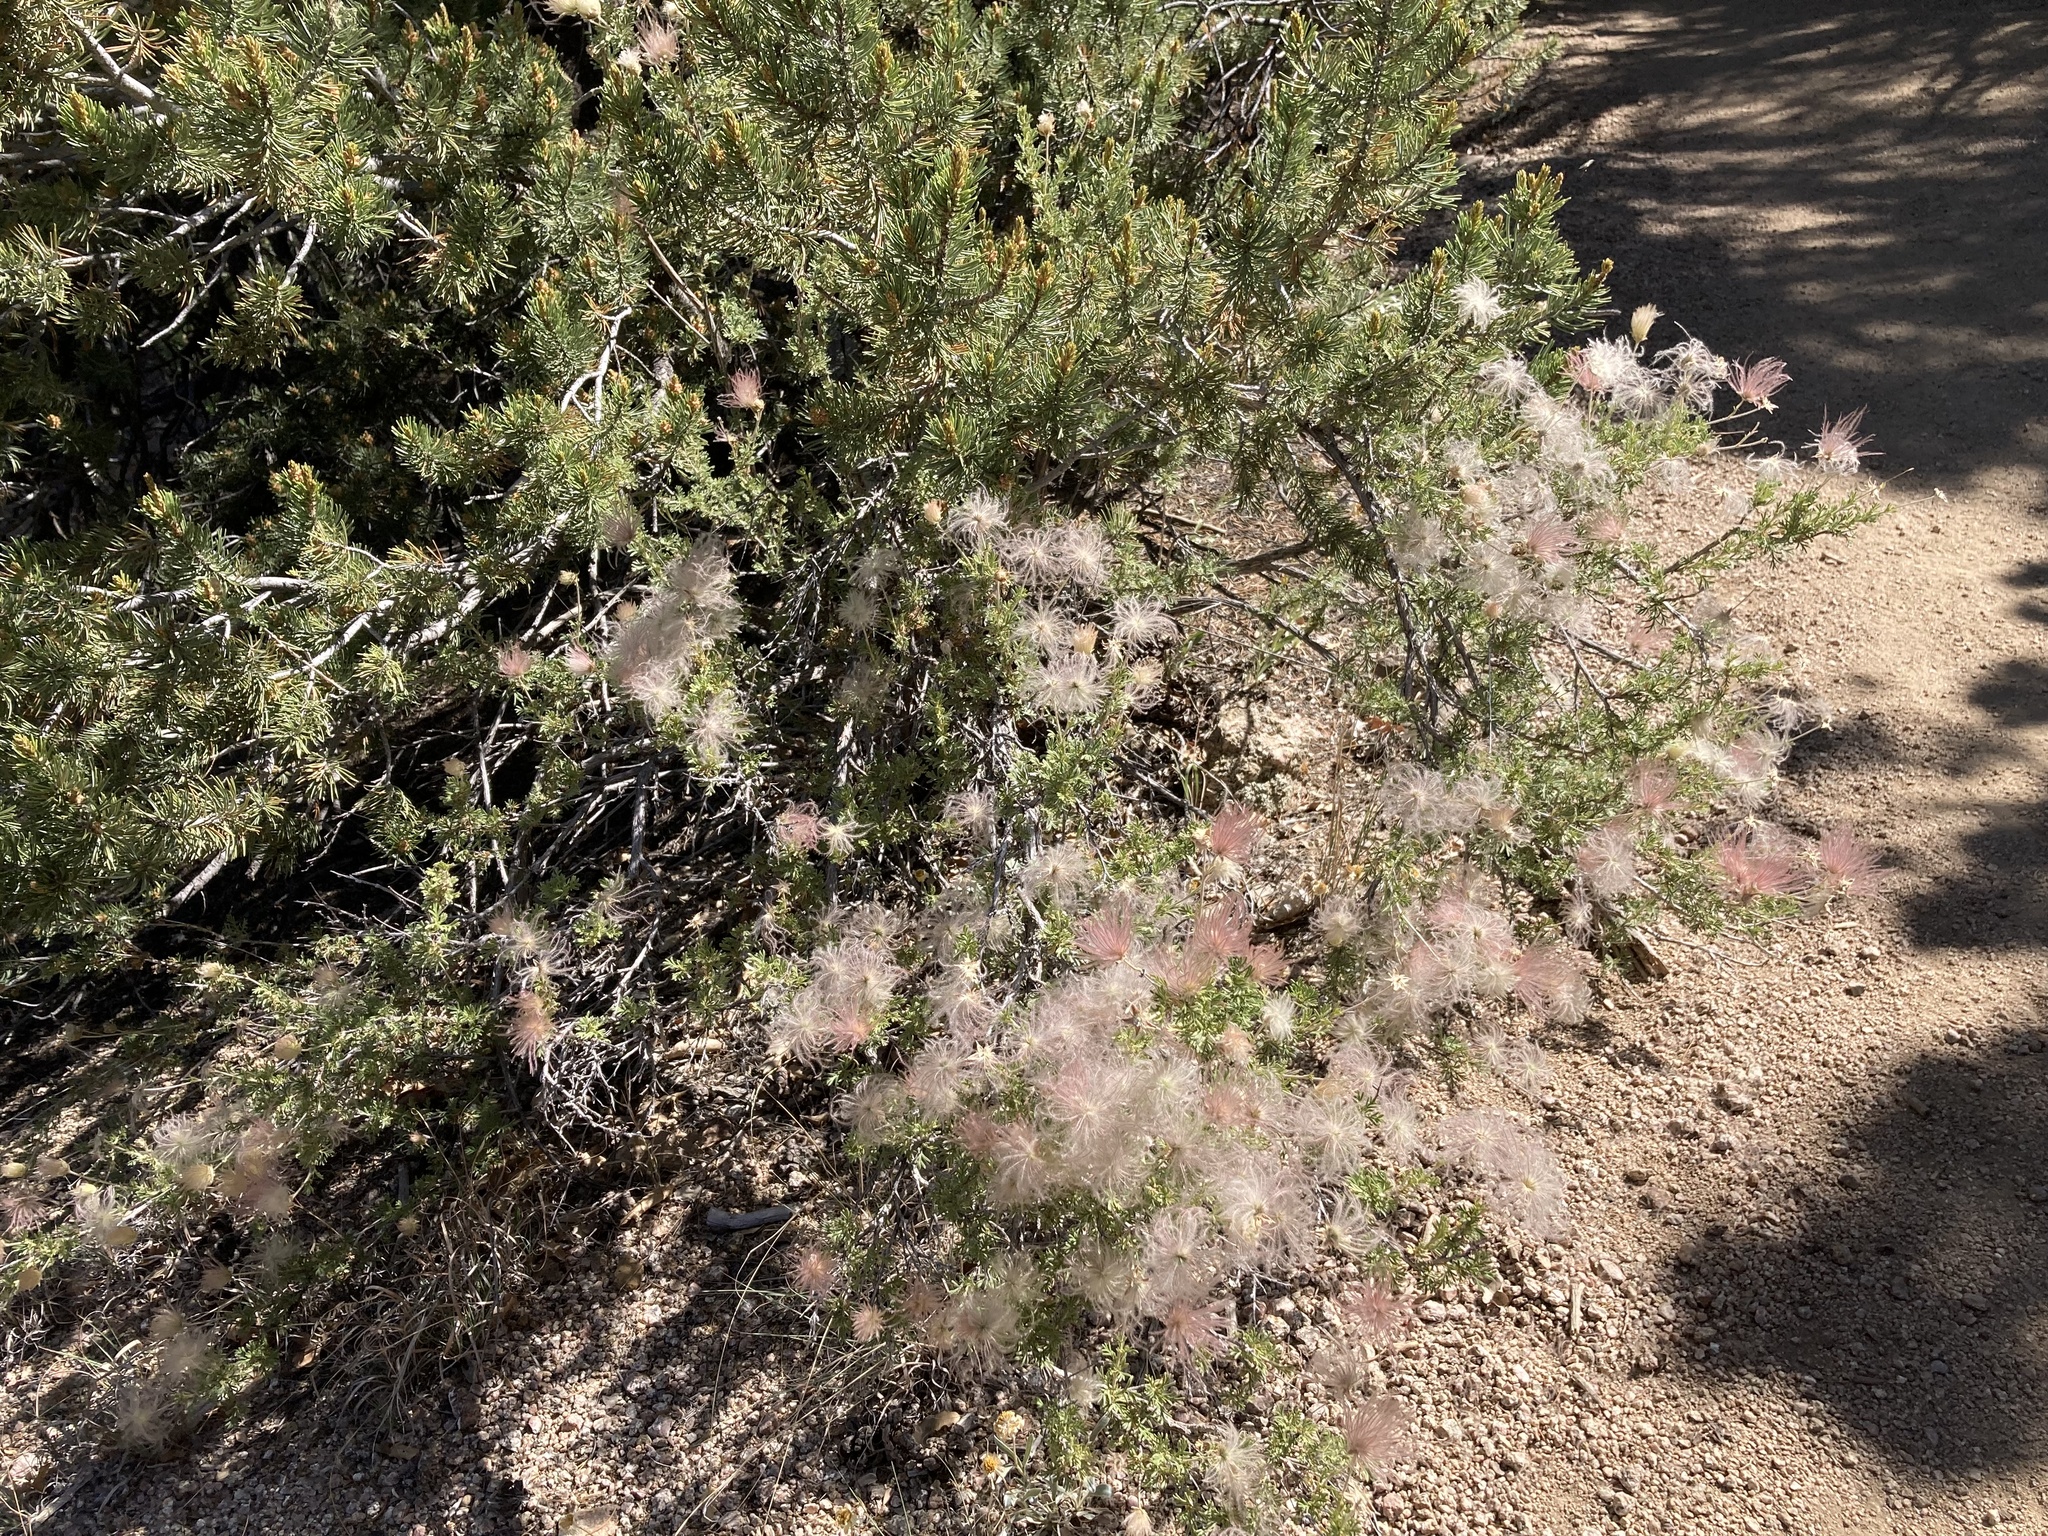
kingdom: Plantae
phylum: Tracheophyta
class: Magnoliopsida
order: Rosales
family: Rosaceae
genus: Fallugia
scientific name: Fallugia paradoxa
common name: Apache-plume
